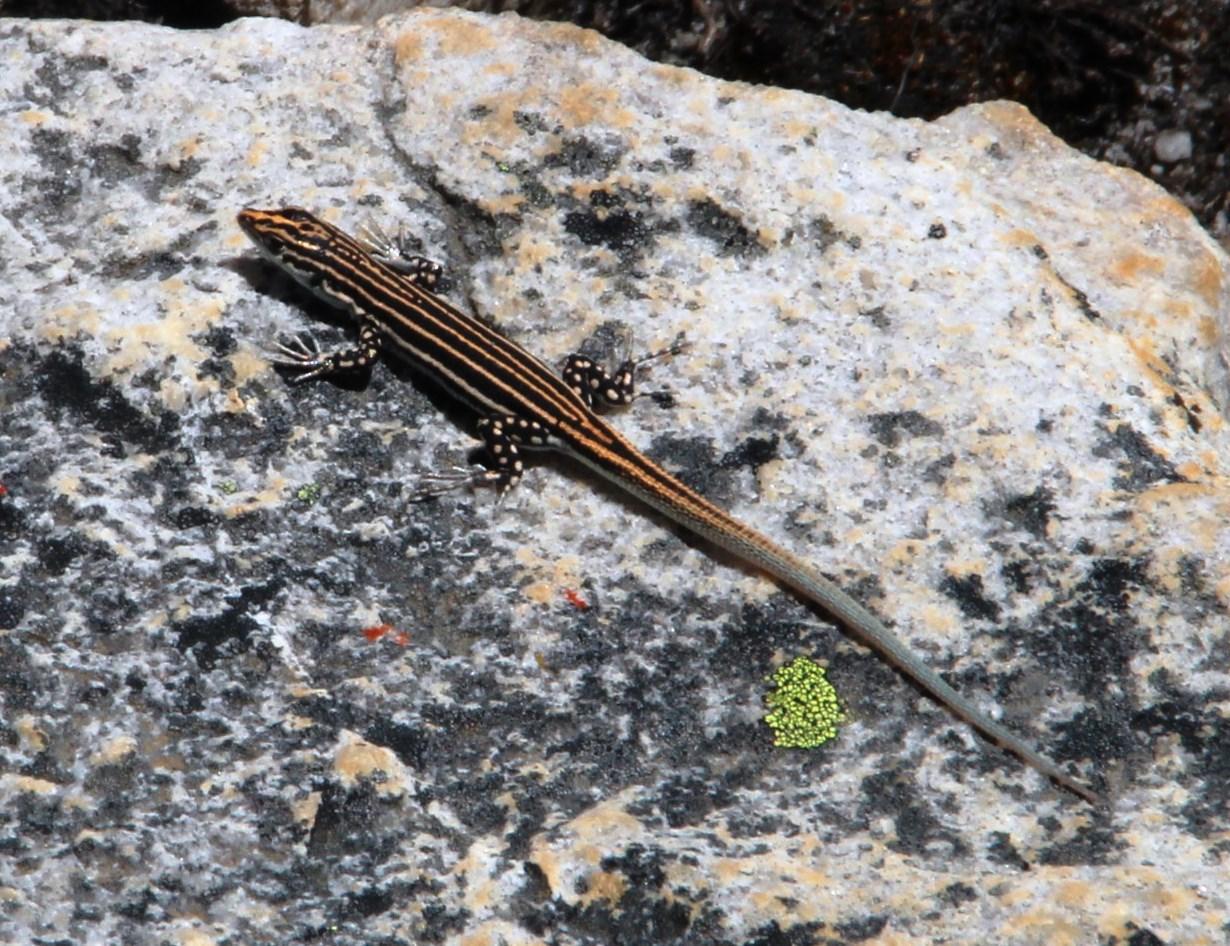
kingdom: Animalia
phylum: Chordata
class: Squamata
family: Lacertidae
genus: Pedioplanis
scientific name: Pedioplanis burchelli
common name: Burchell's sand lizard
